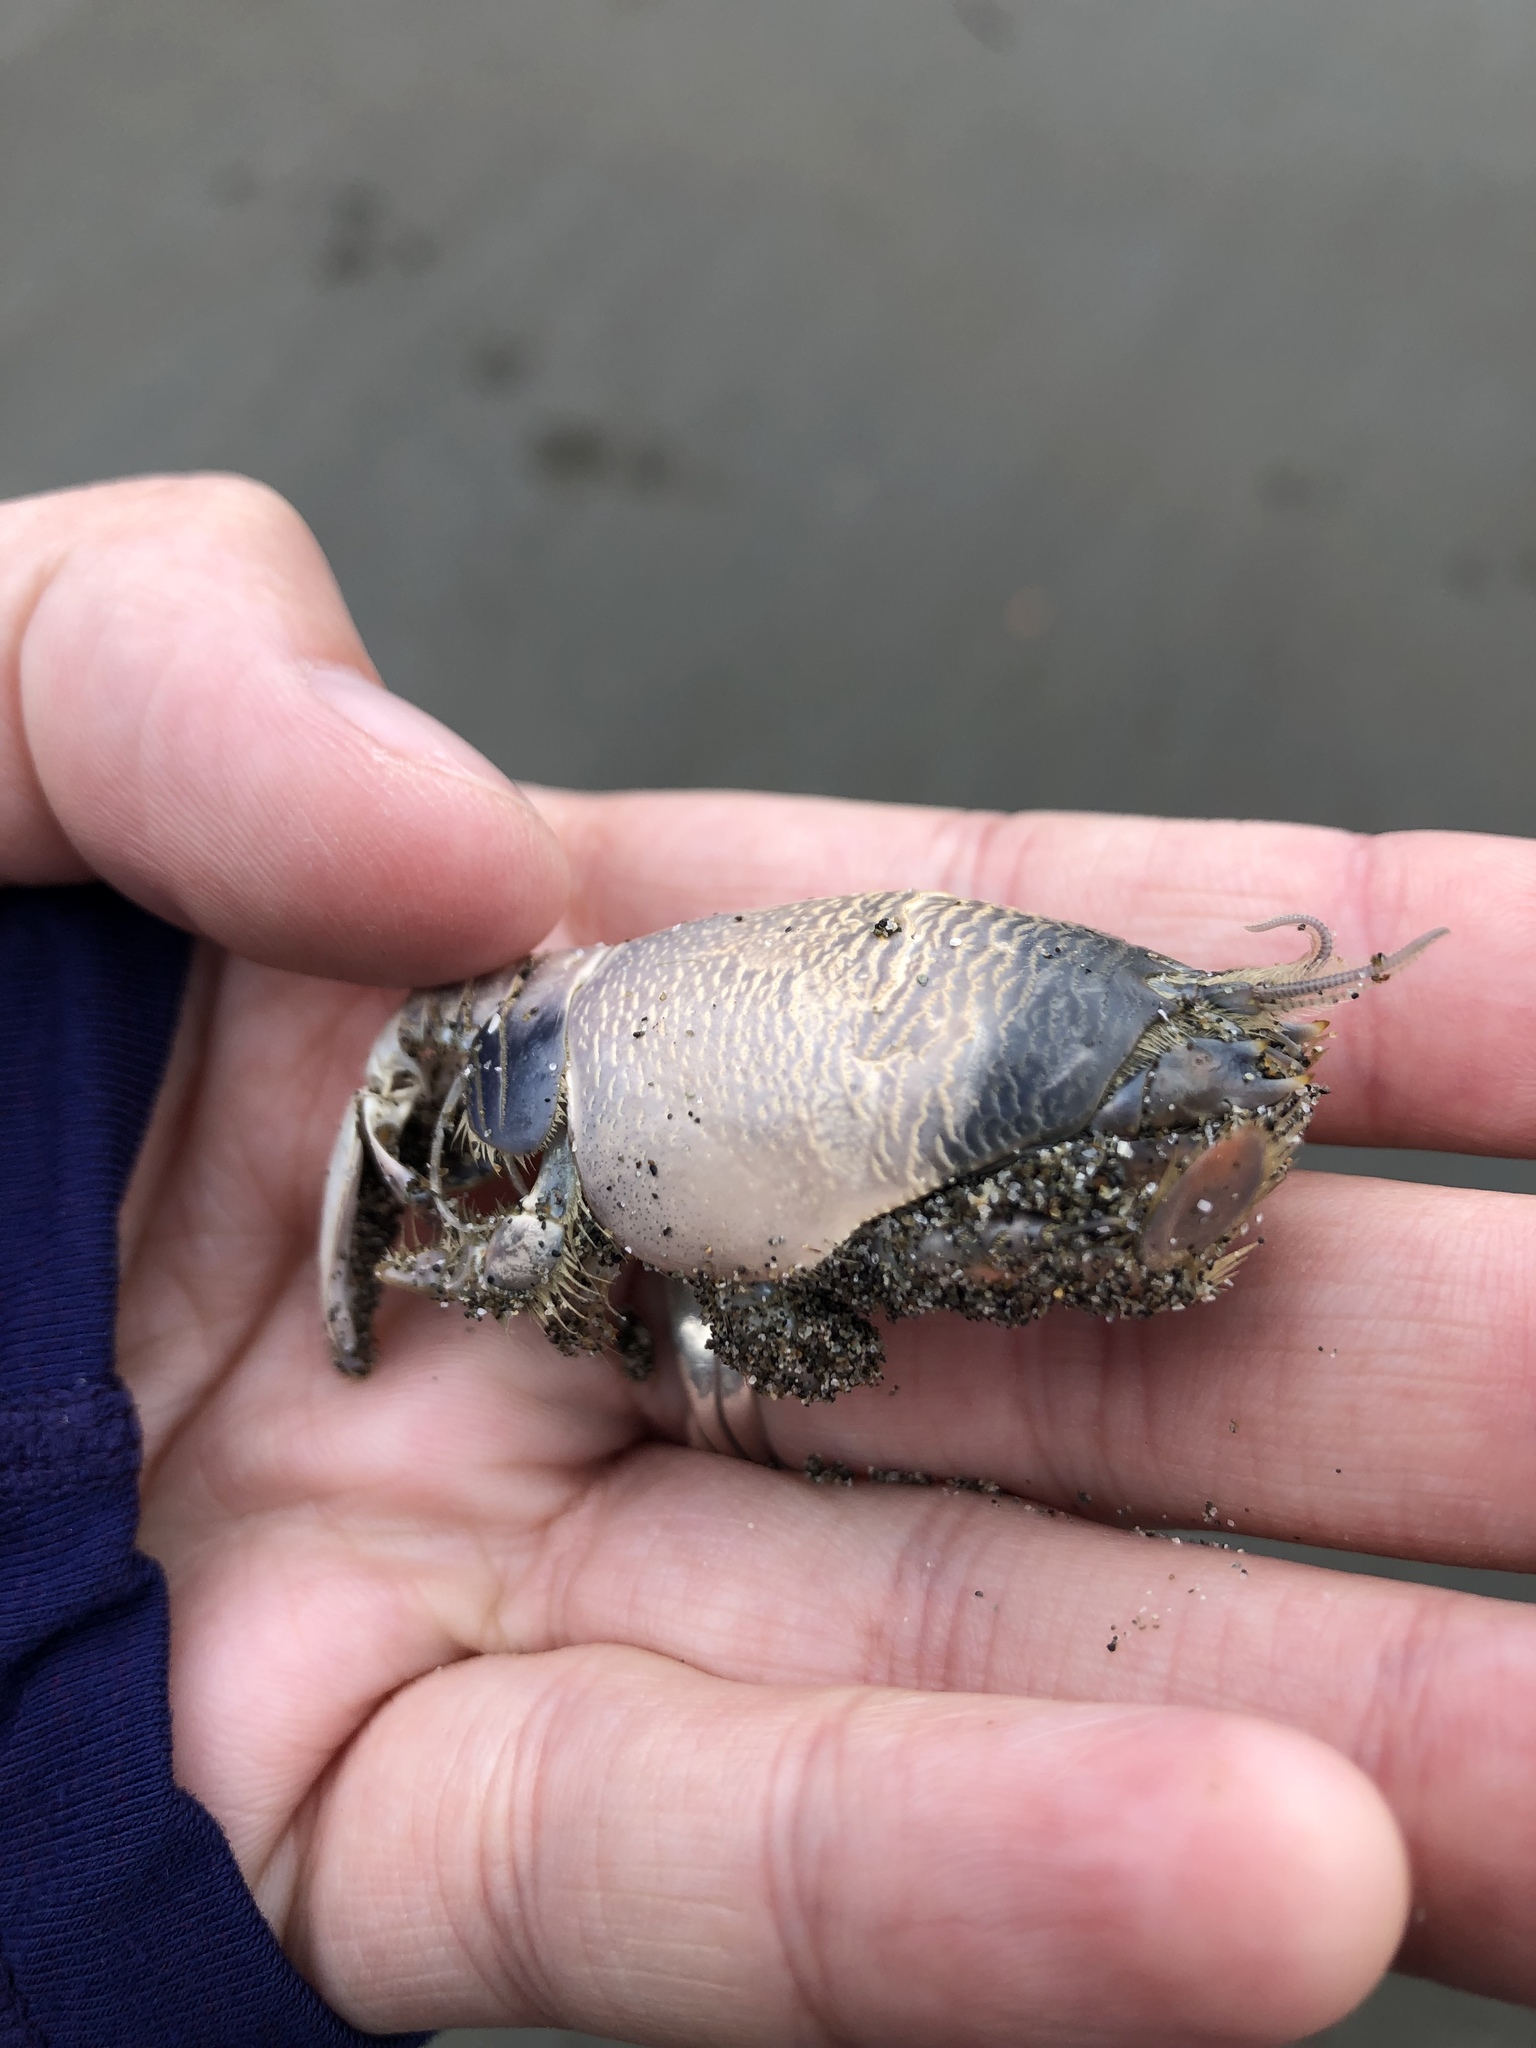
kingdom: Animalia
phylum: Arthropoda
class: Malacostraca
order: Decapoda
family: Hippidae
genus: Emerita
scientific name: Emerita analoga
